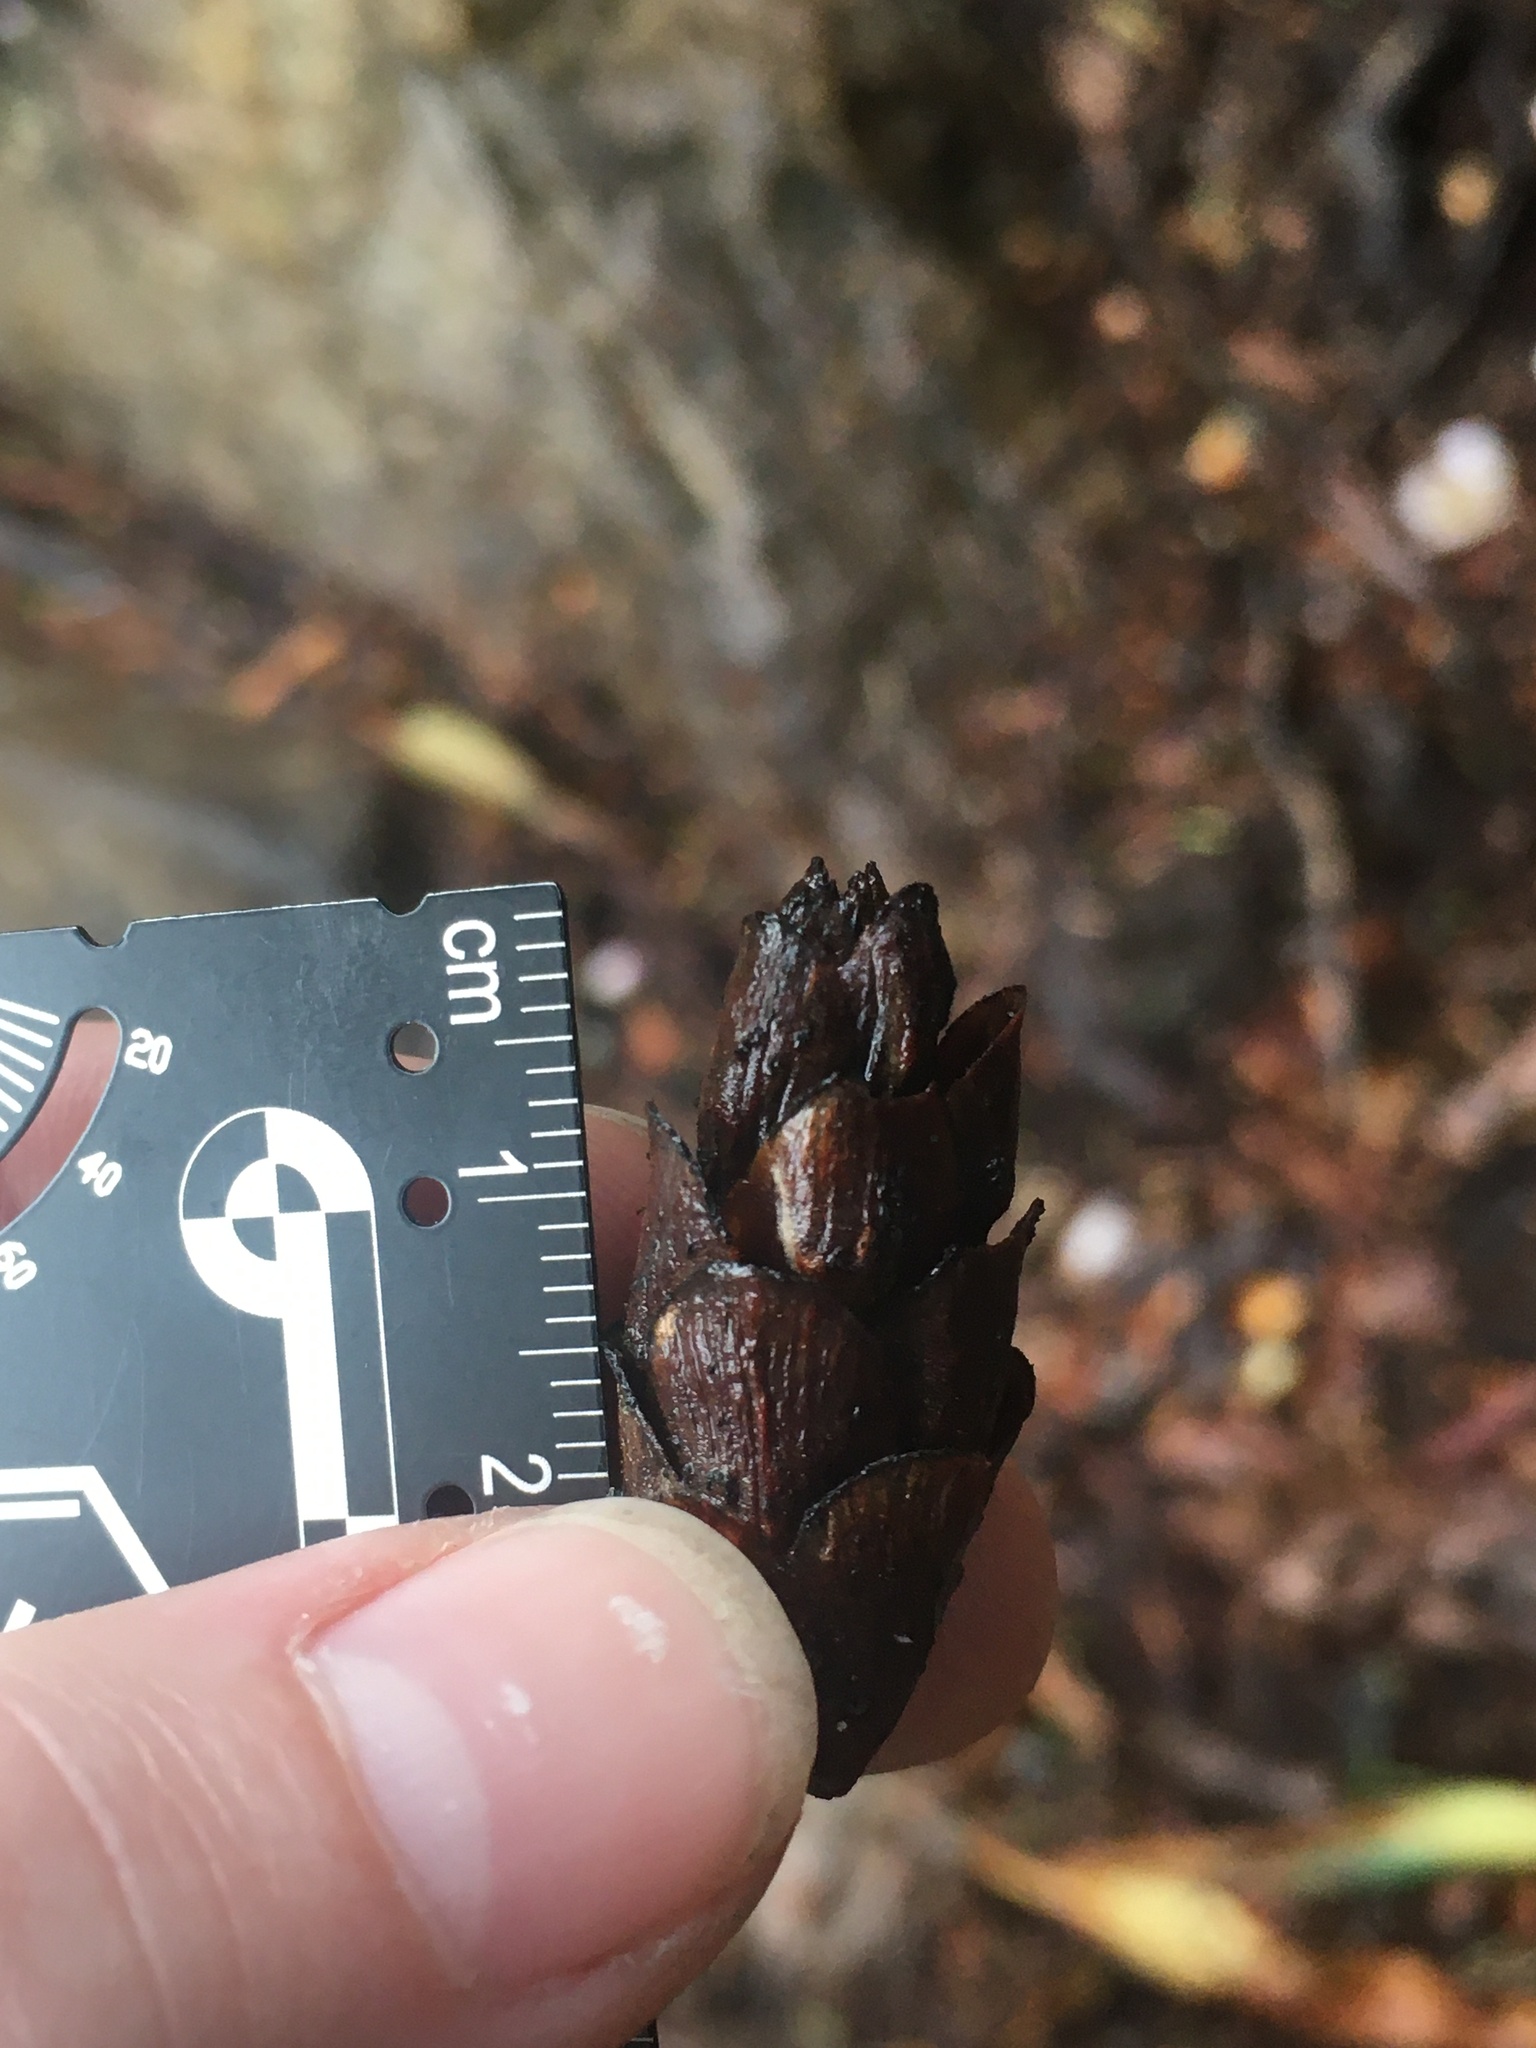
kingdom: Plantae
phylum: Tracheophyta
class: Pinopsida
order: Pinales
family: Pinaceae
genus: Tsuga
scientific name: Tsuga caroliniana
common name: Carolina hemlock
